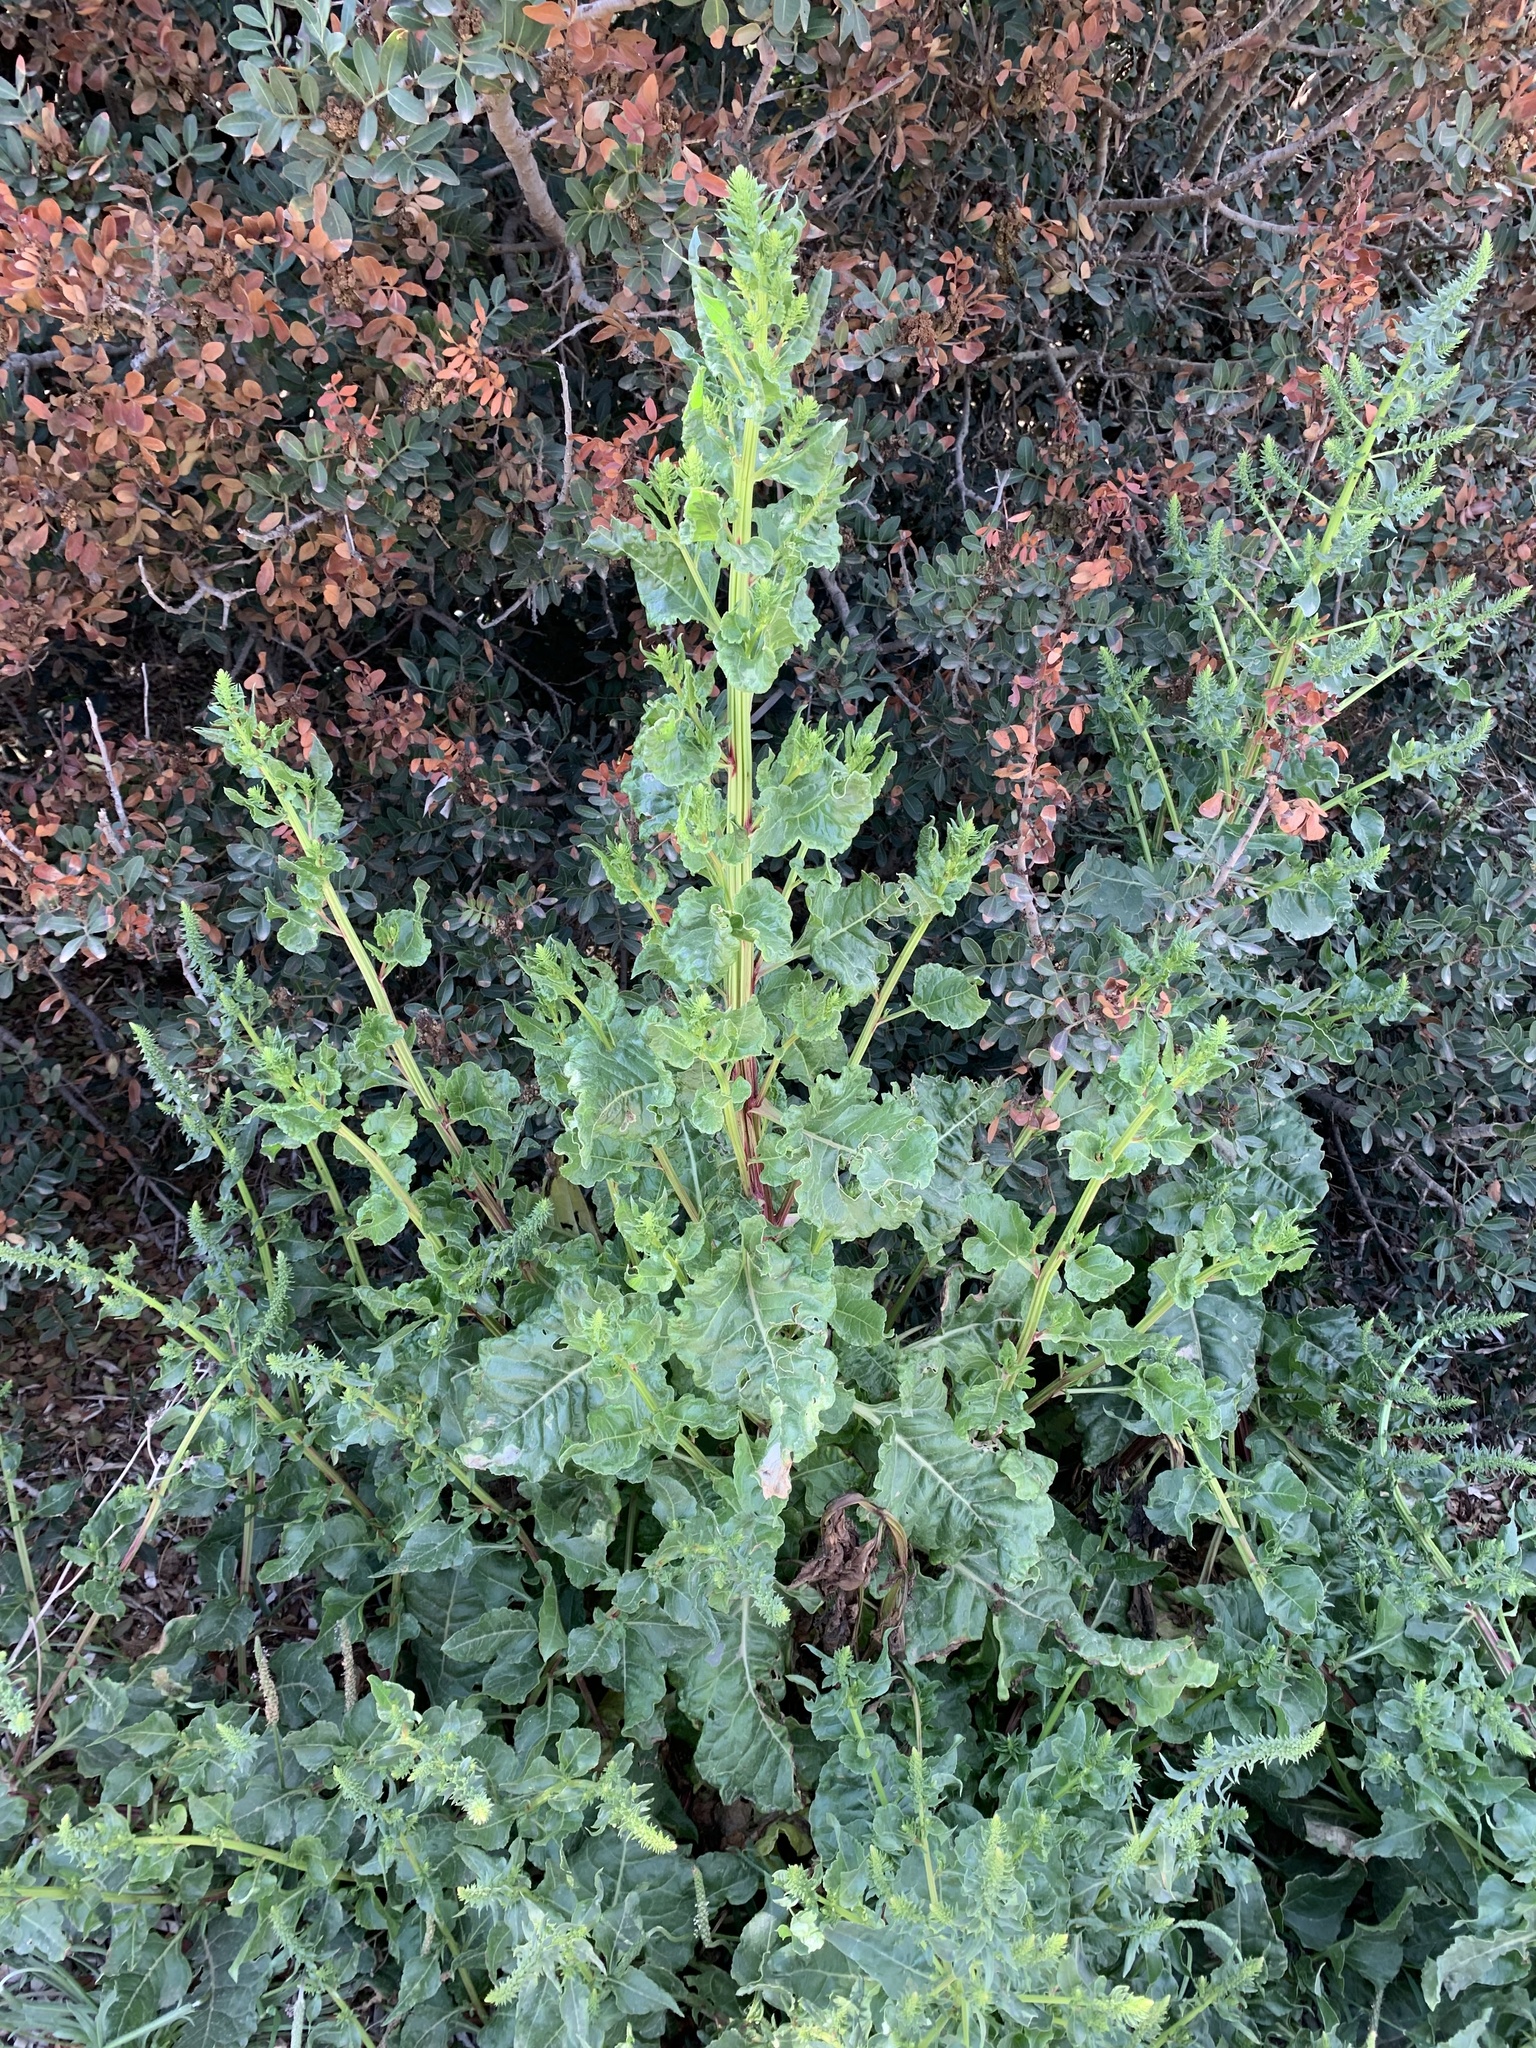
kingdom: Plantae
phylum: Tracheophyta
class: Magnoliopsida
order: Caryophyllales
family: Amaranthaceae
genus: Beta
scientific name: Beta vulgaris
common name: Beet
